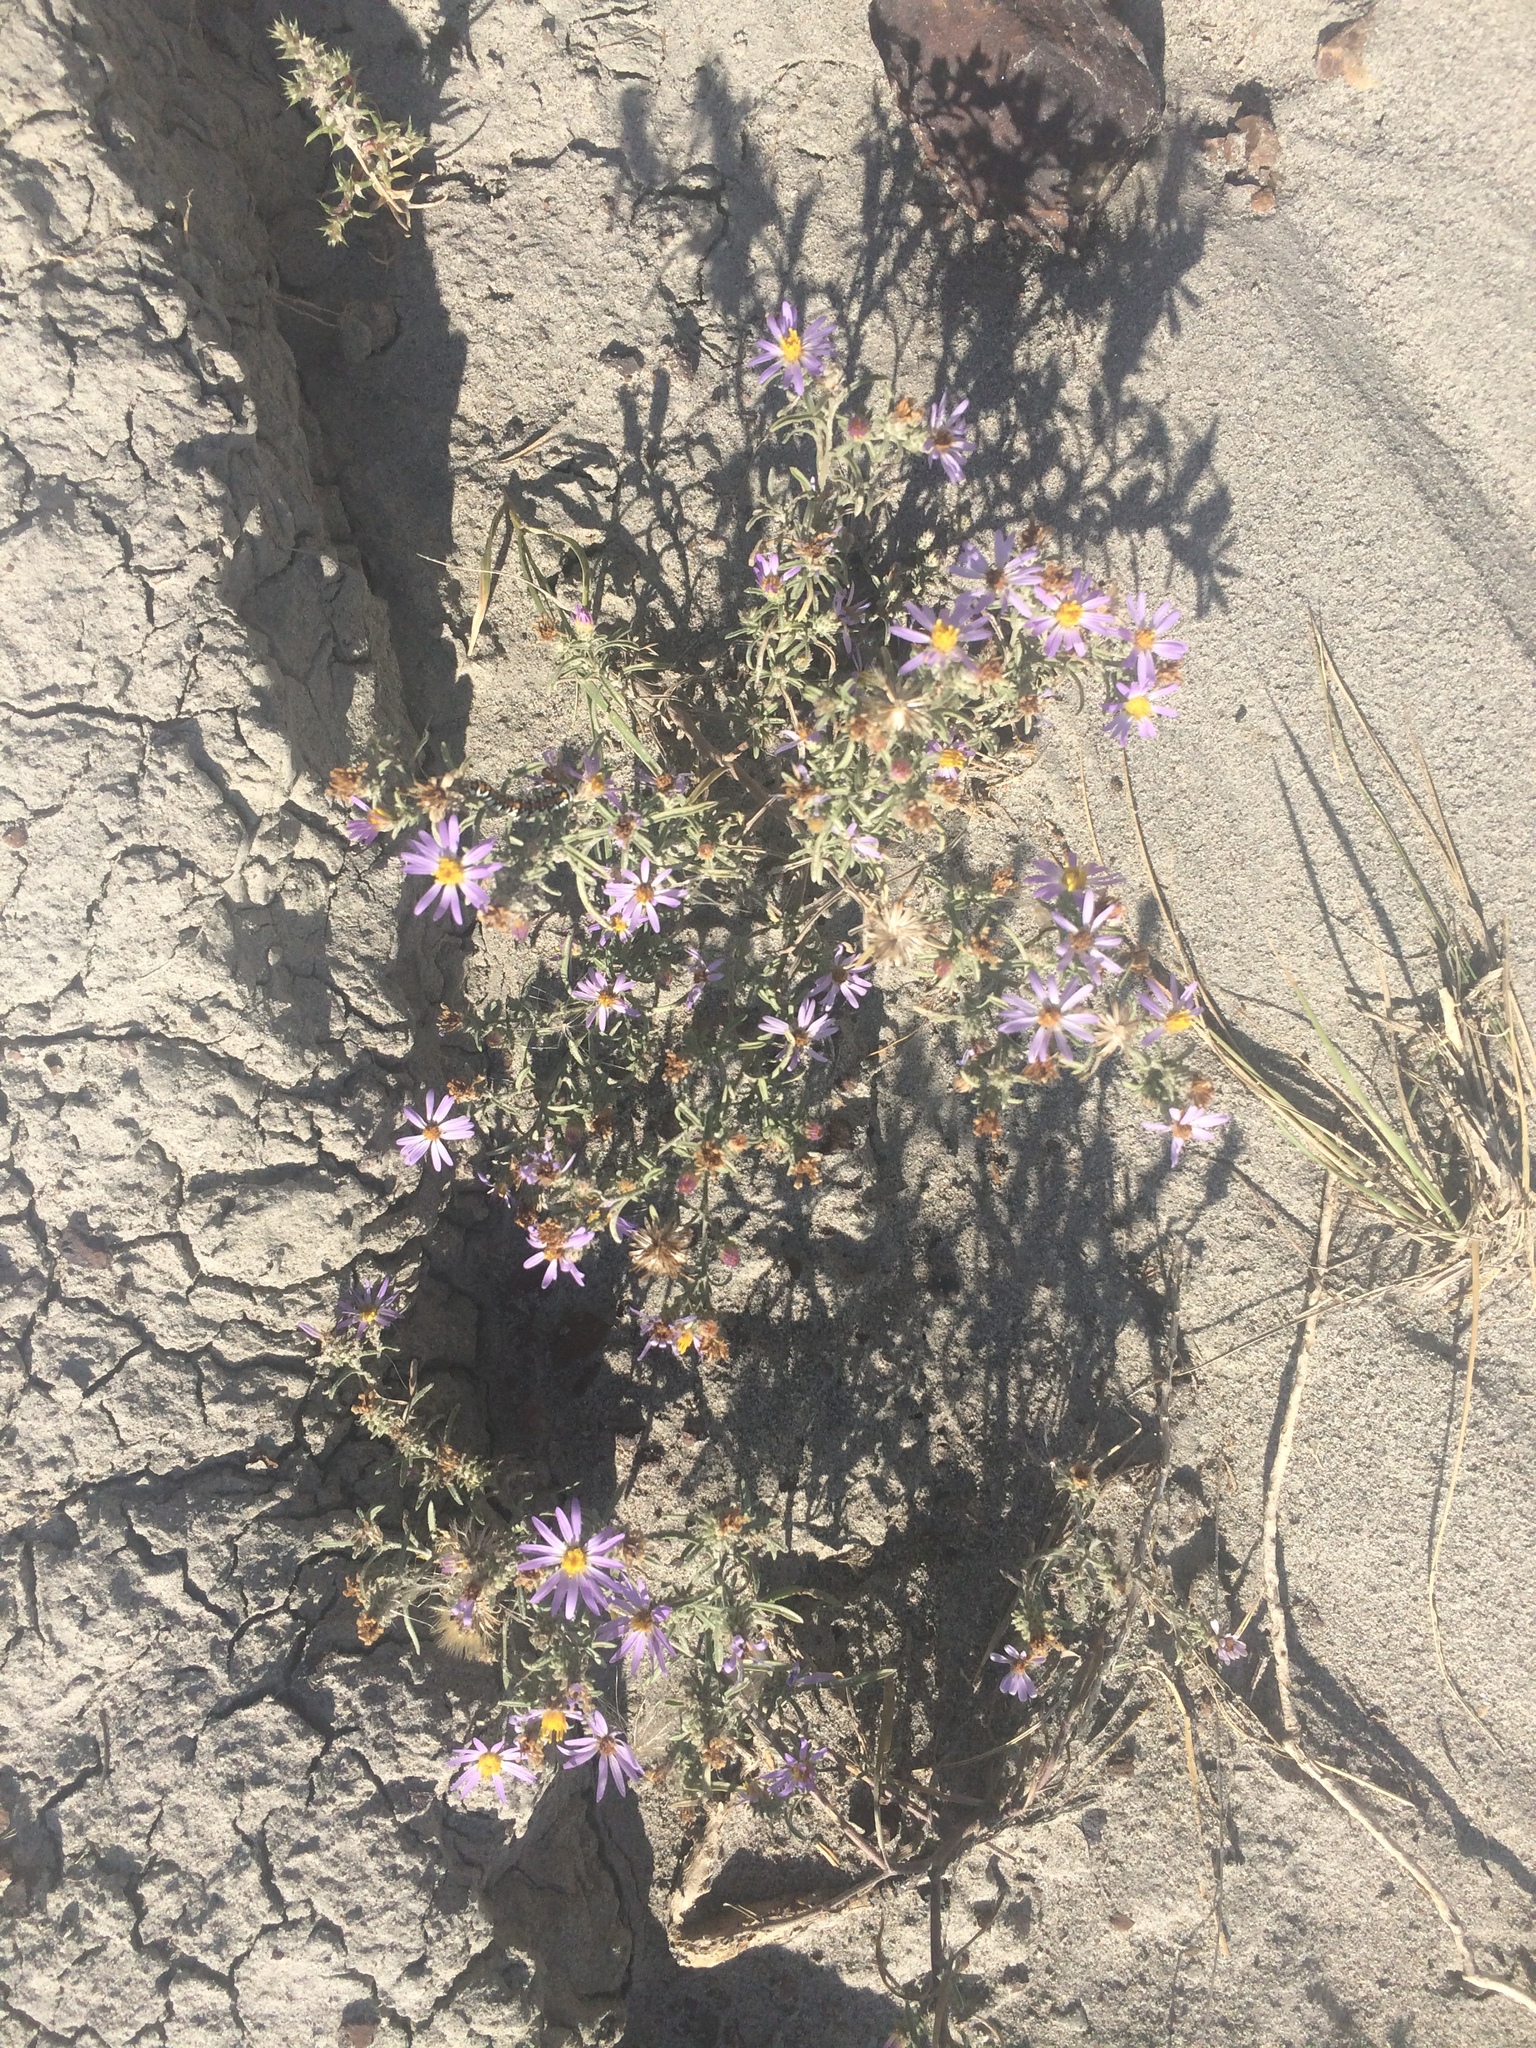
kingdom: Plantae
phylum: Tracheophyta
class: Magnoliopsida
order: Asterales
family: Asteraceae
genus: Dieteria
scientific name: Dieteria canescens
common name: Hoary-aster
